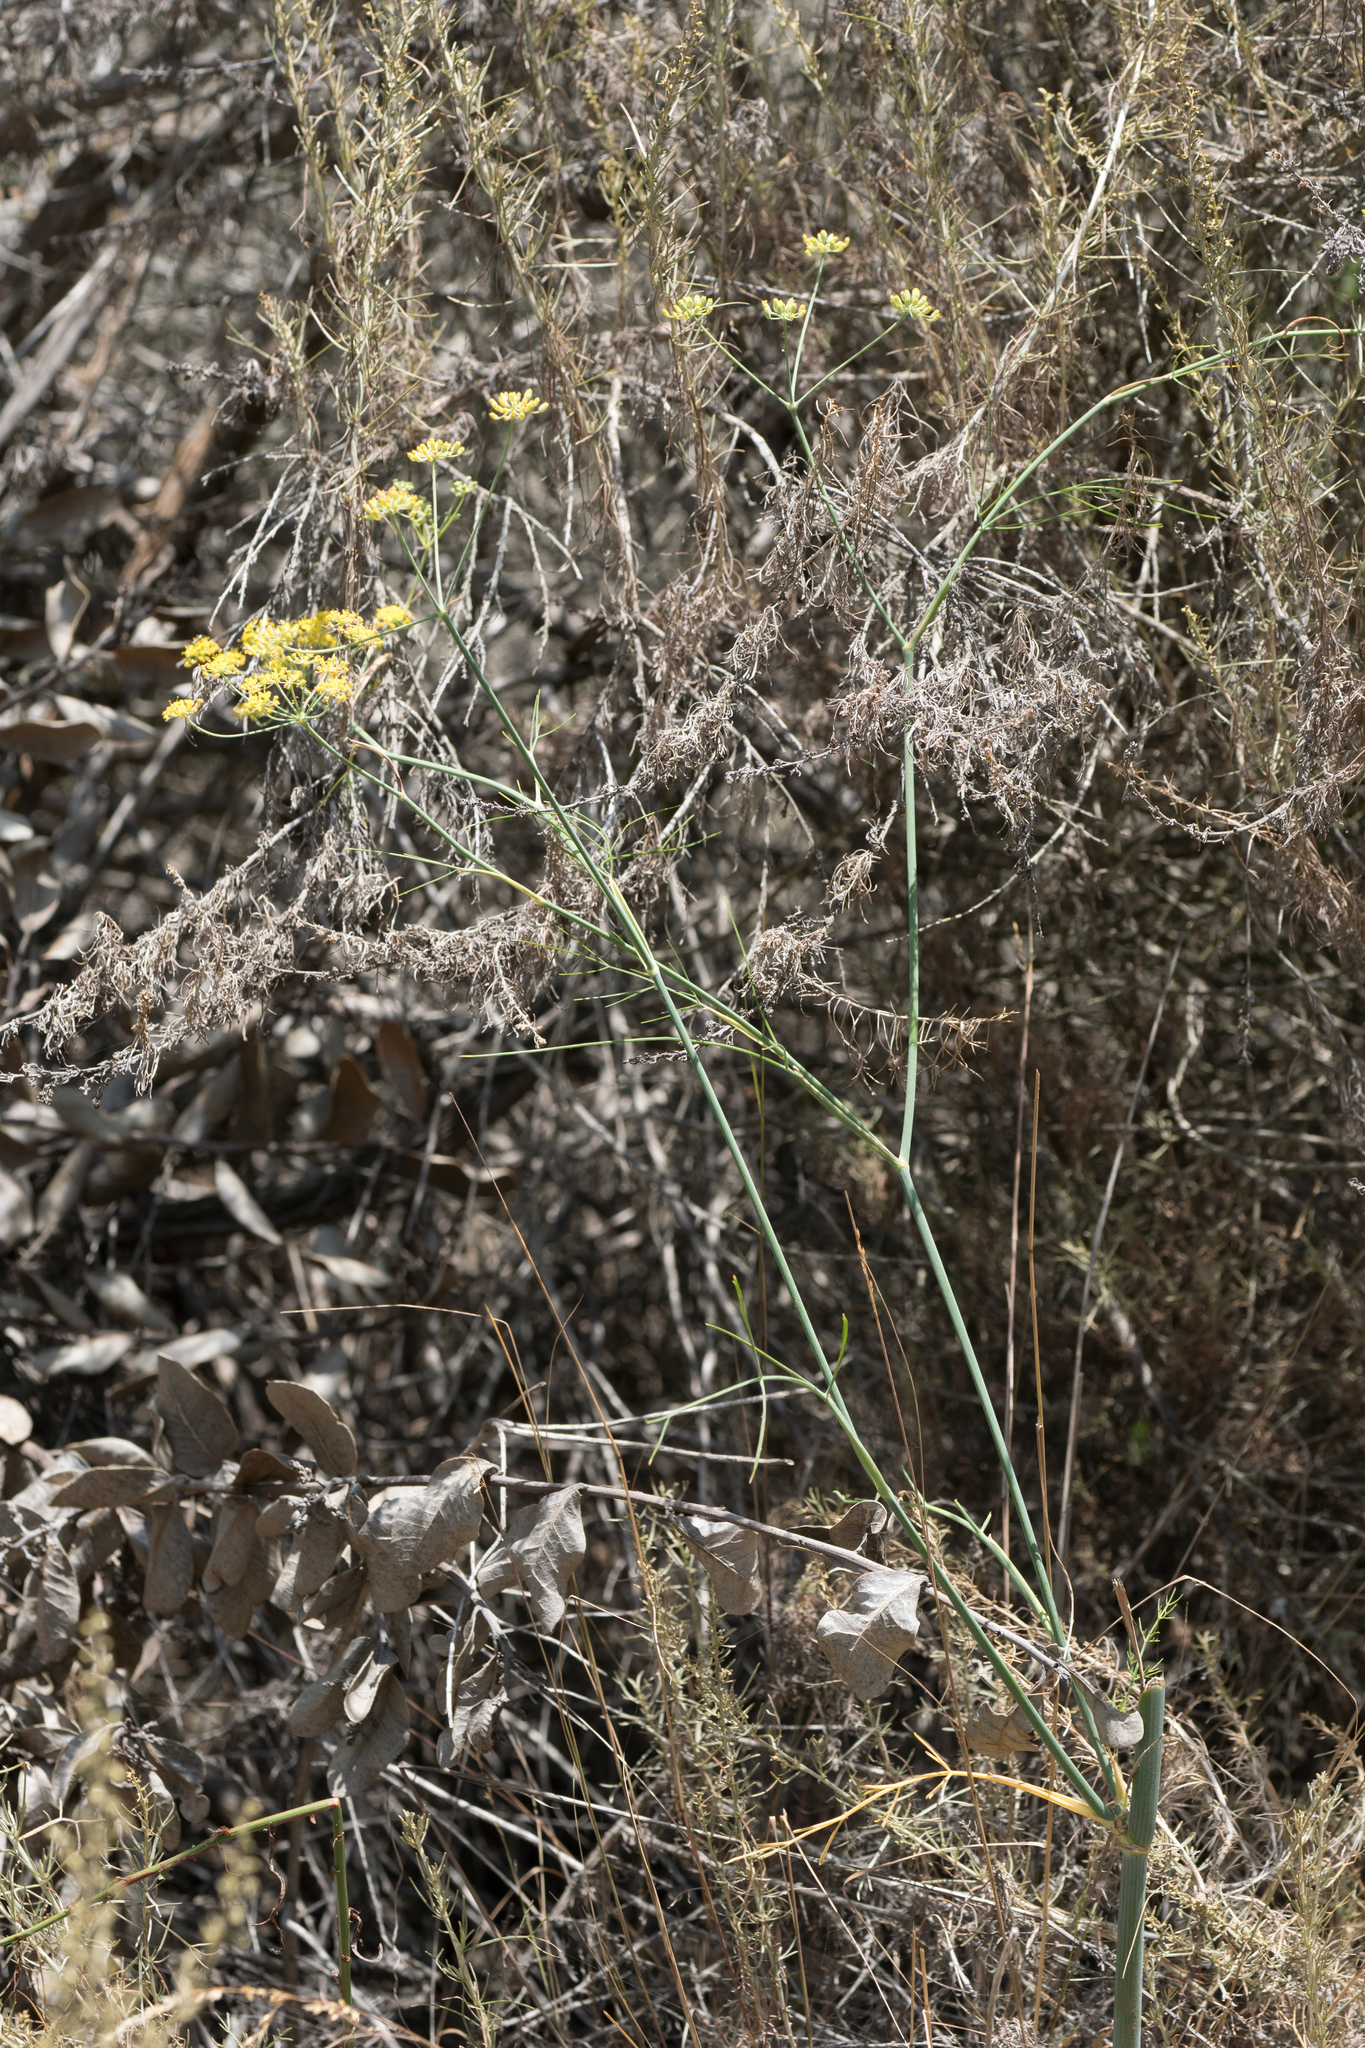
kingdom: Plantae
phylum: Tracheophyta
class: Magnoliopsida
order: Apiales
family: Apiaceae
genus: Foeniculum
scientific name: Foeniculum vulgare
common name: Fennel
